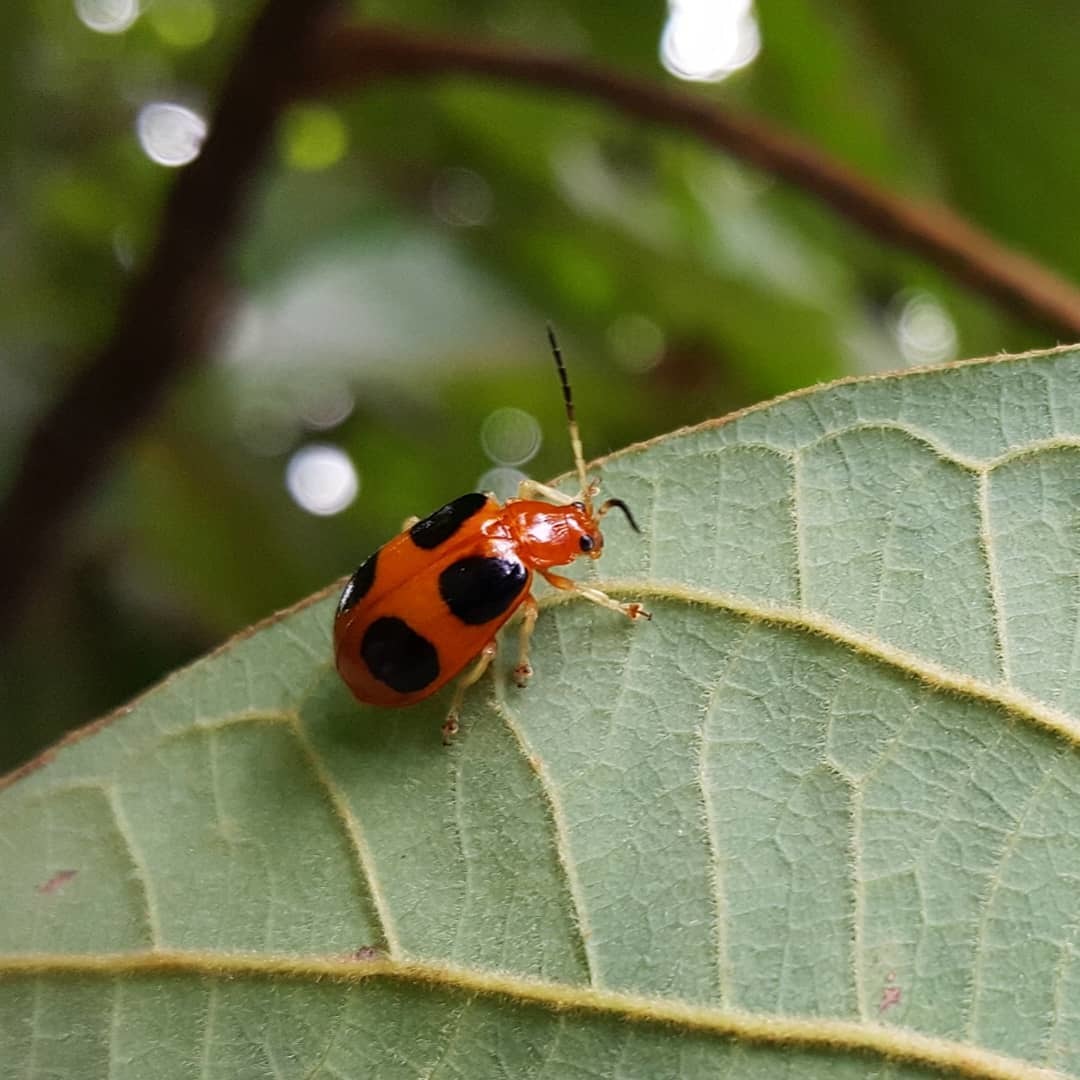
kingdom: Animalia
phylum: Arthropoda
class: Insecta
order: Coleoptera
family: Chrysomelidae
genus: Isotes
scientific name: Isotes
